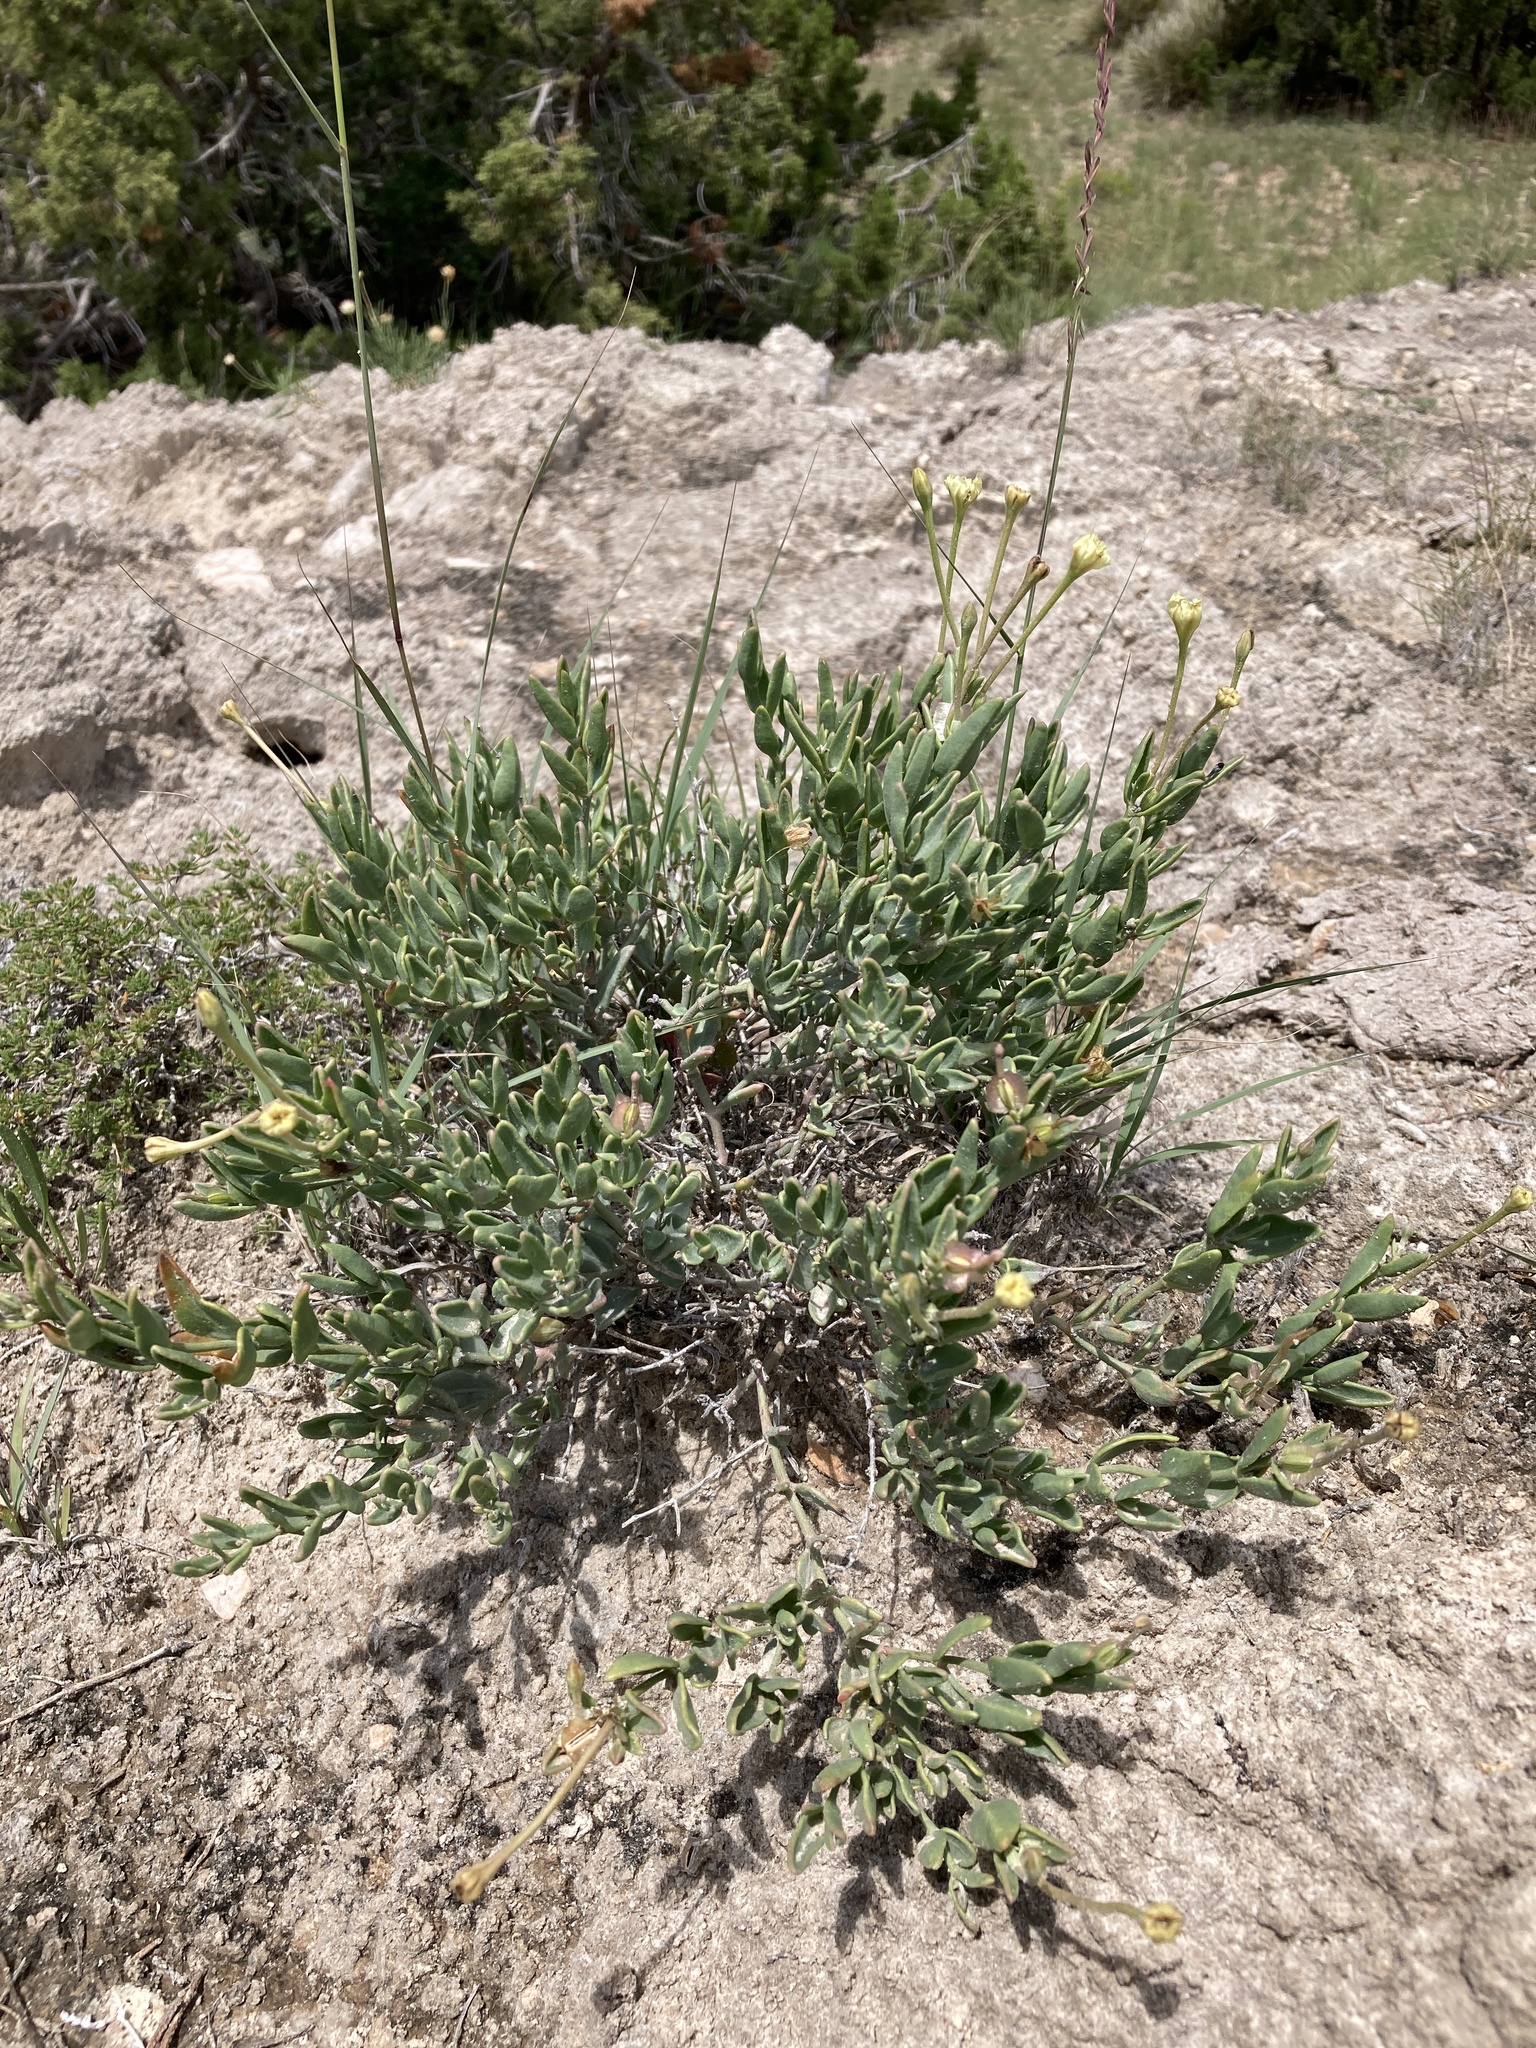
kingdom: Plantae
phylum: Tracheophyta
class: Magnoliopsida
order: Caryophyllales
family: Nyctaginaceae
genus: Acleisanthes
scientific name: Acleisanthes lanceolata
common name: Gypsum moonpod
